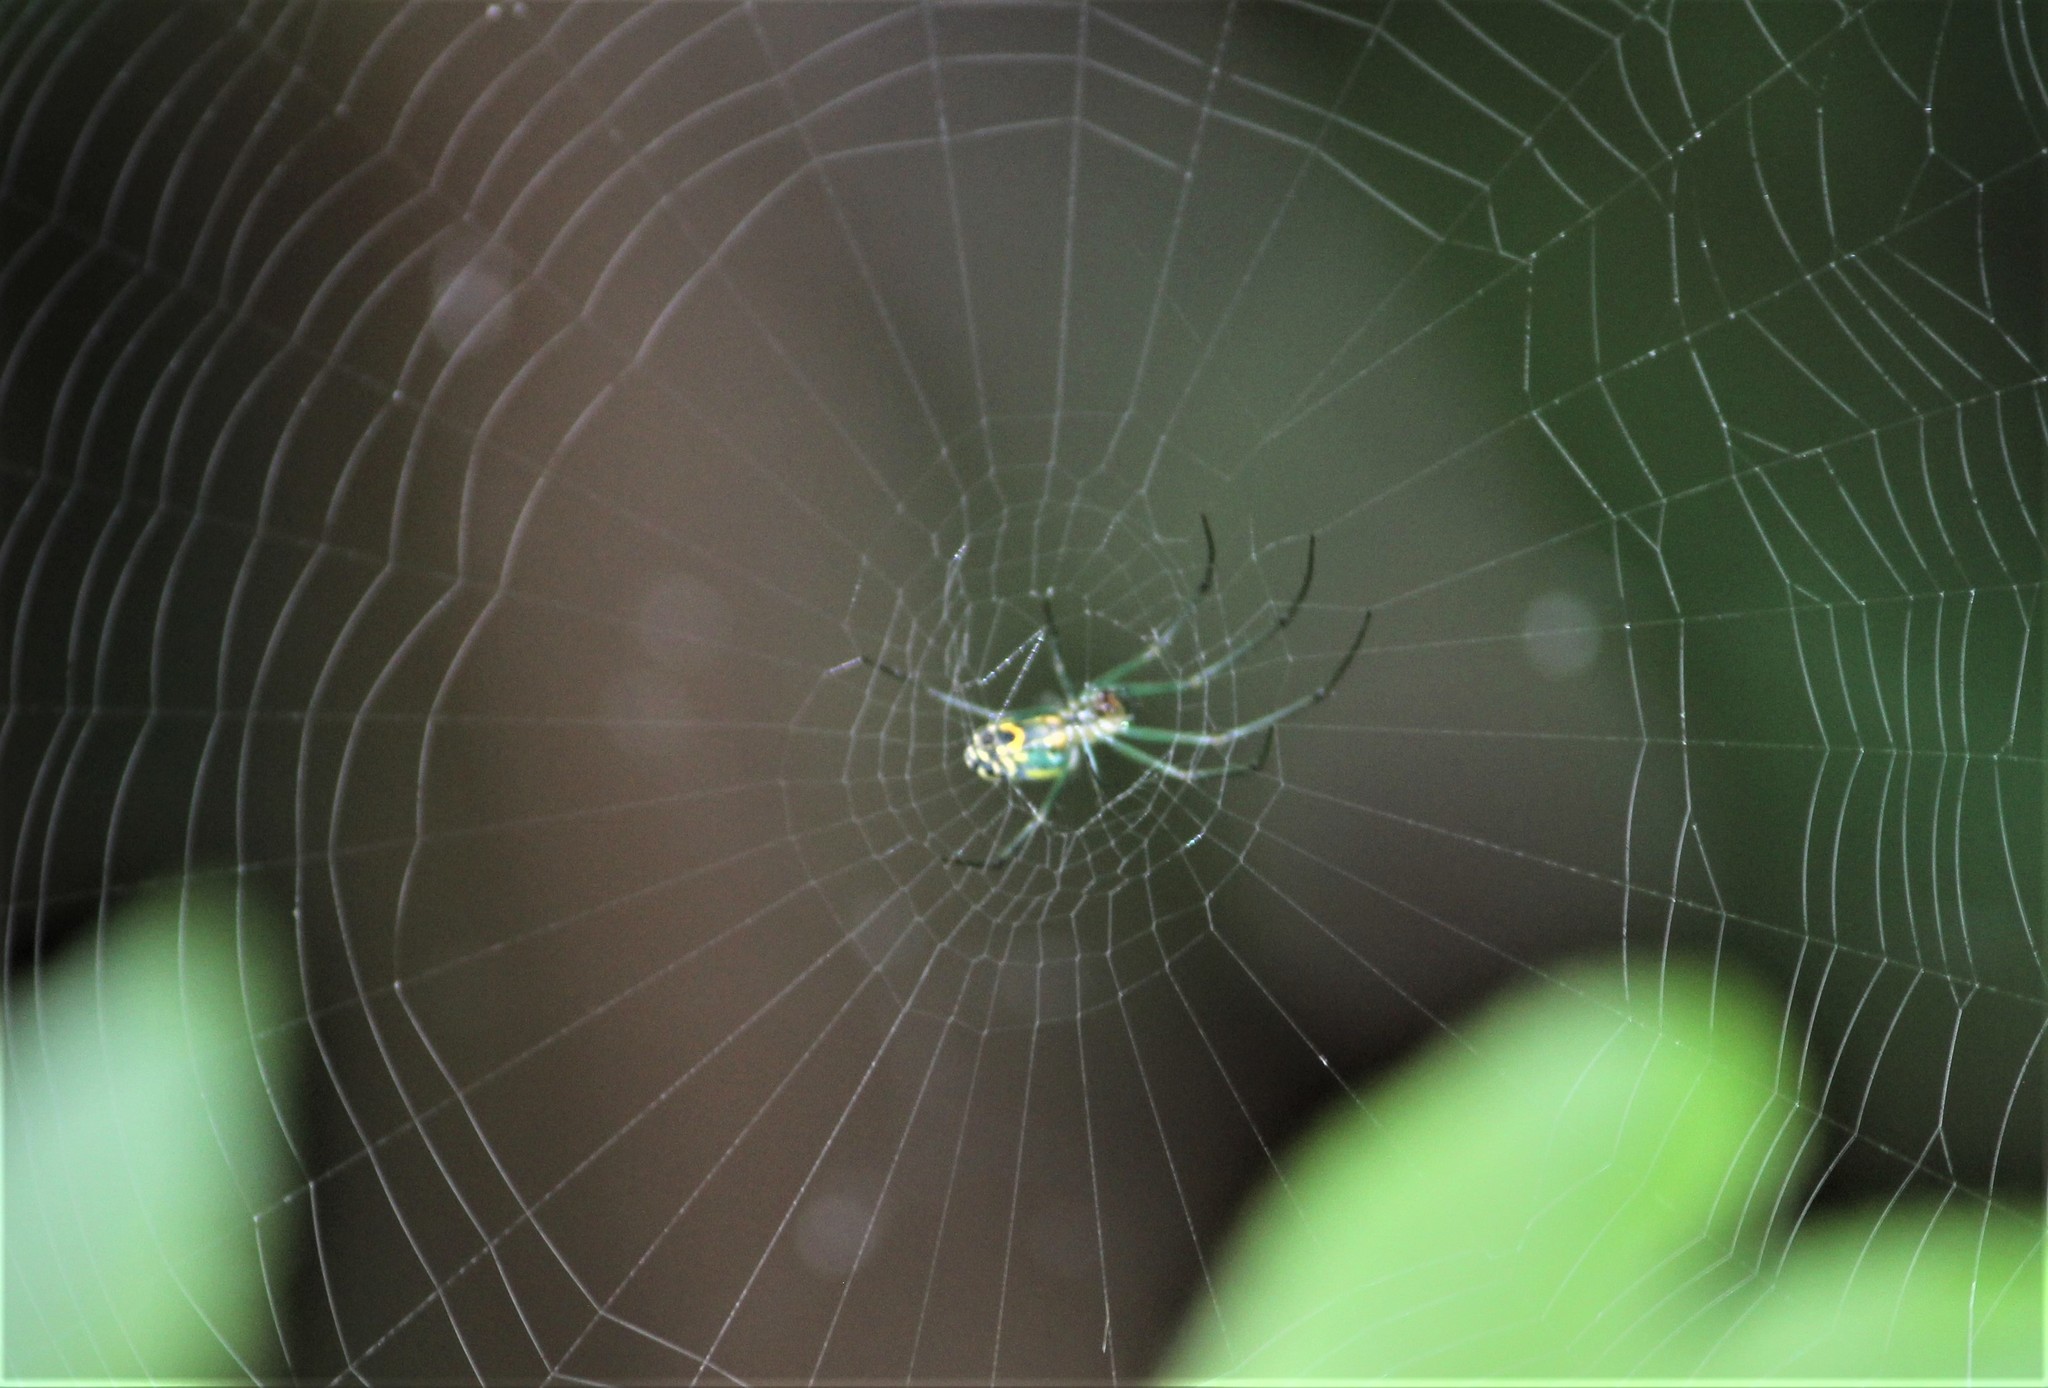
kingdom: Animalia
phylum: Arthropoda
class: Arachnida
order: Araneae
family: Tetragnathidae
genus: Leucauge
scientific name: Leucauge venusta
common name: Longjawed orb weavers
